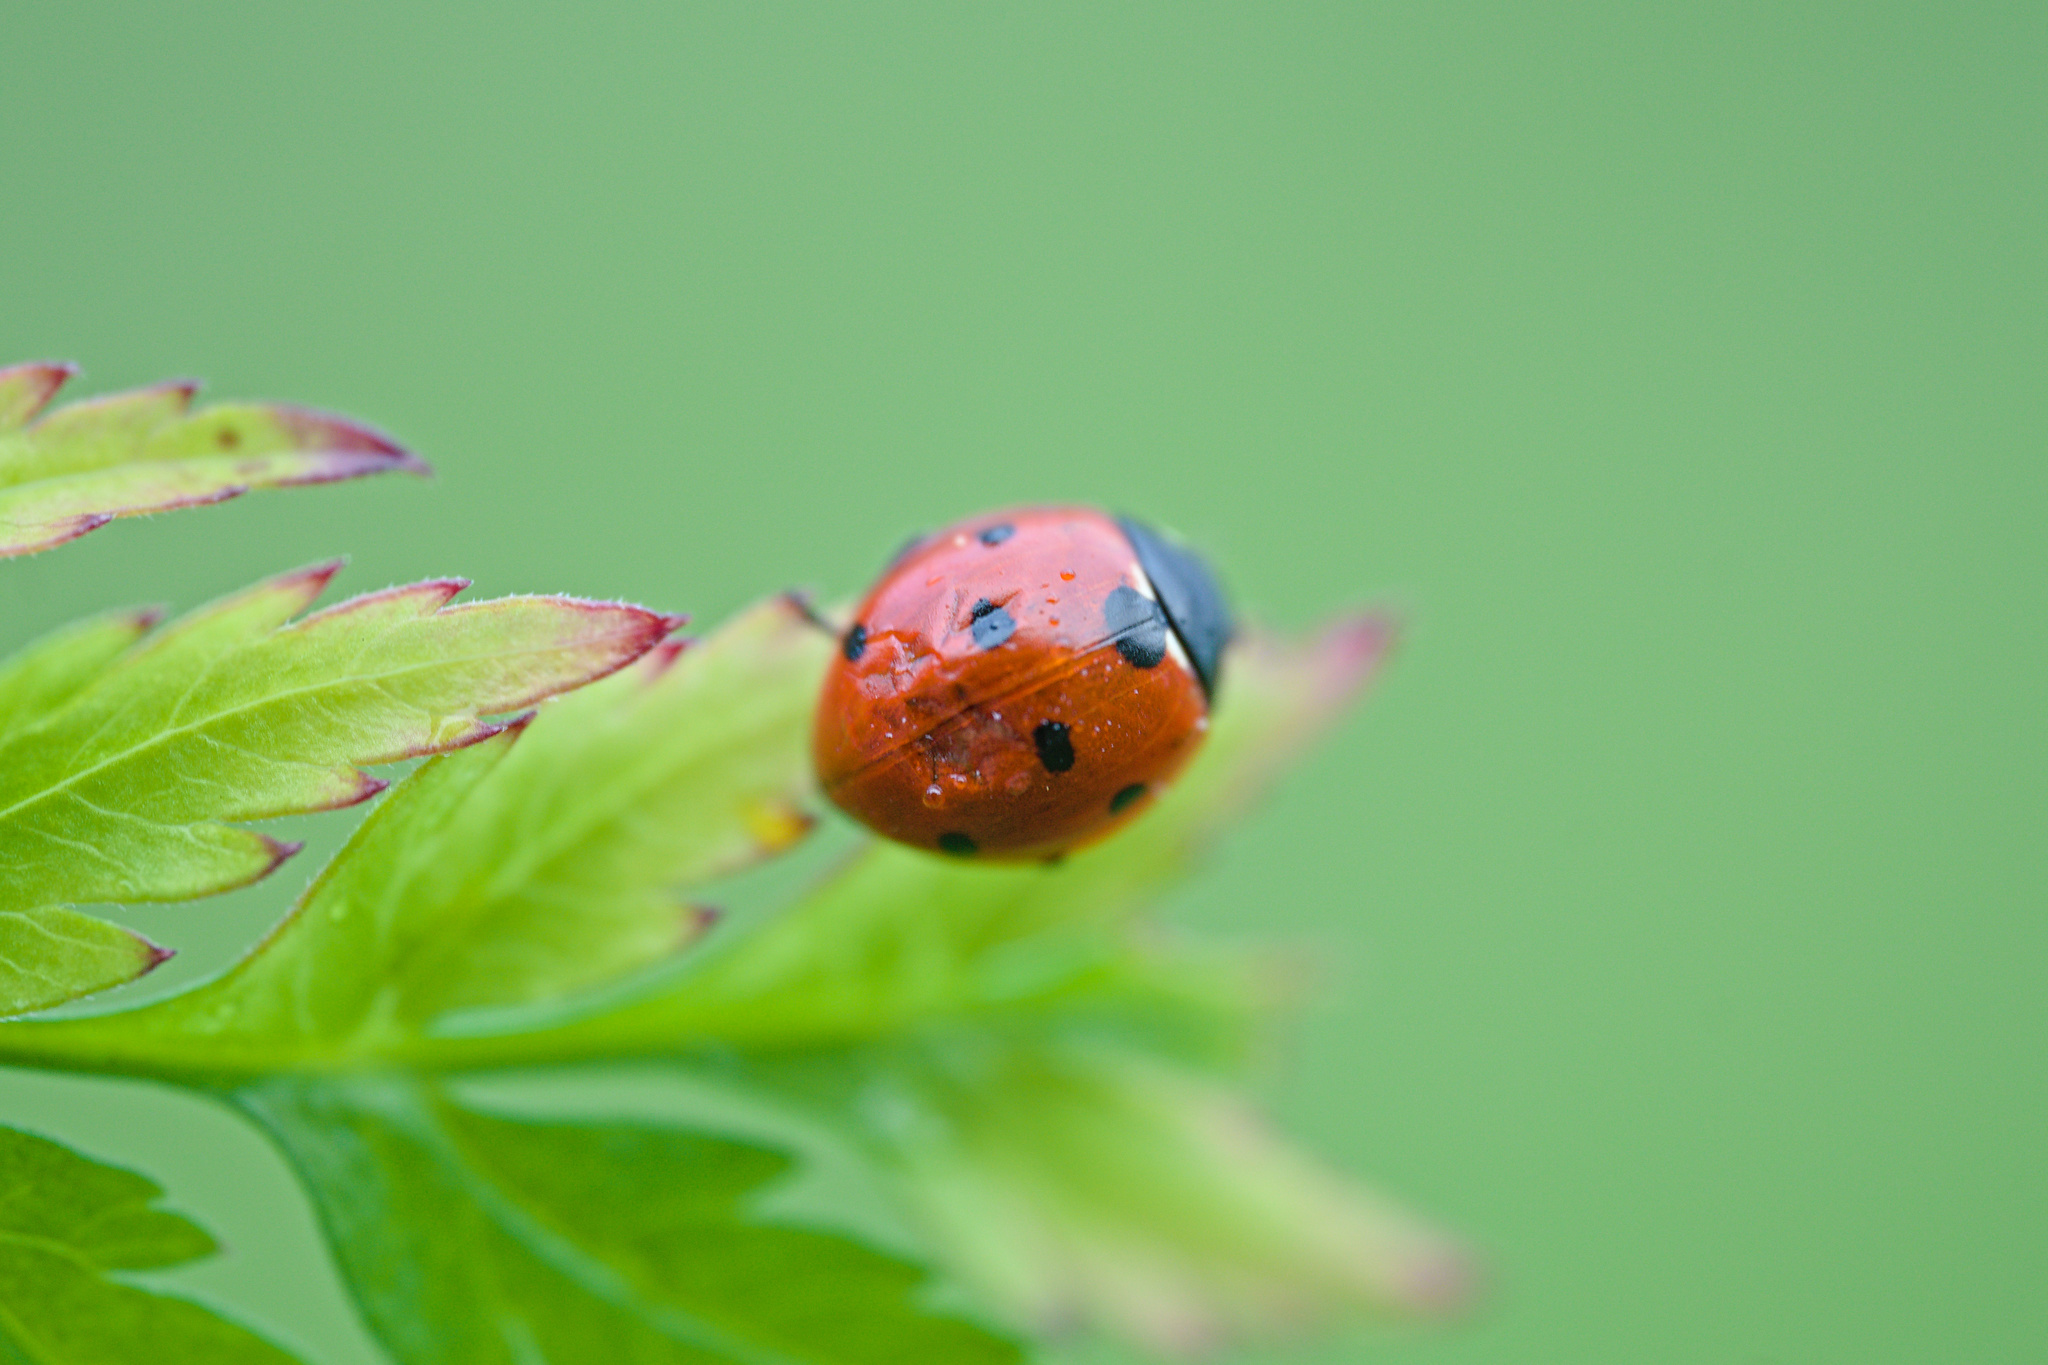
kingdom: Animalia
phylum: Arthropoda
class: Insecta
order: Coleoptera
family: Coccinellidae
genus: Coccinella
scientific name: Coccinella septempunctata
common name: Sevenspotted lady beetle
